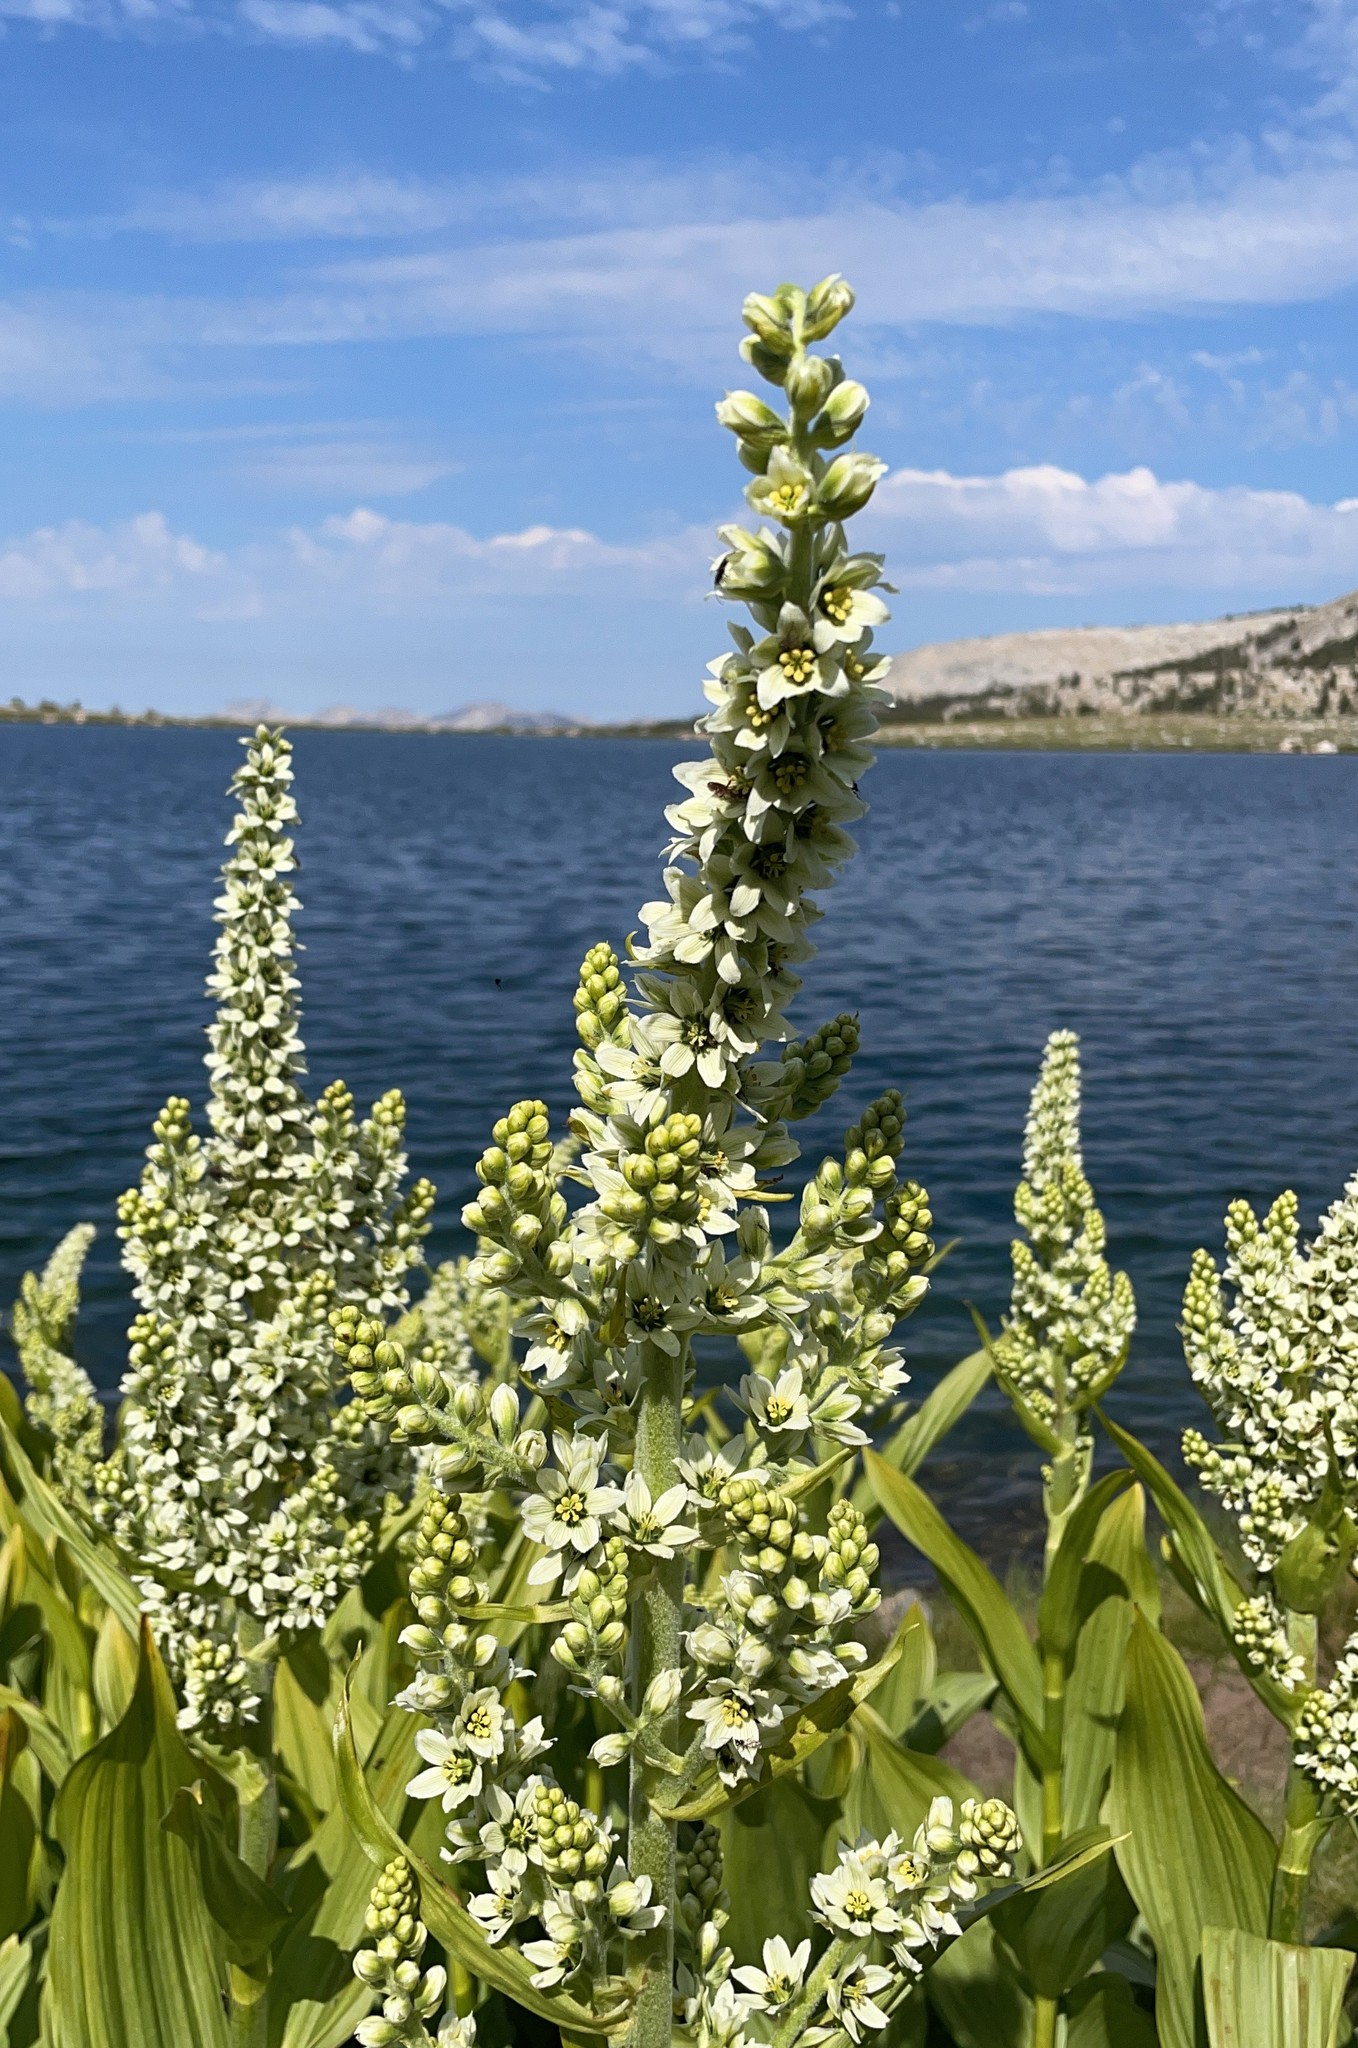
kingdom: Plantae
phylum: Tracheophyta
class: Liliopsida
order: Liliales
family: Melanthiaceae
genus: Veratrum
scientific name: Veratrum californicum
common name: California veratrum
